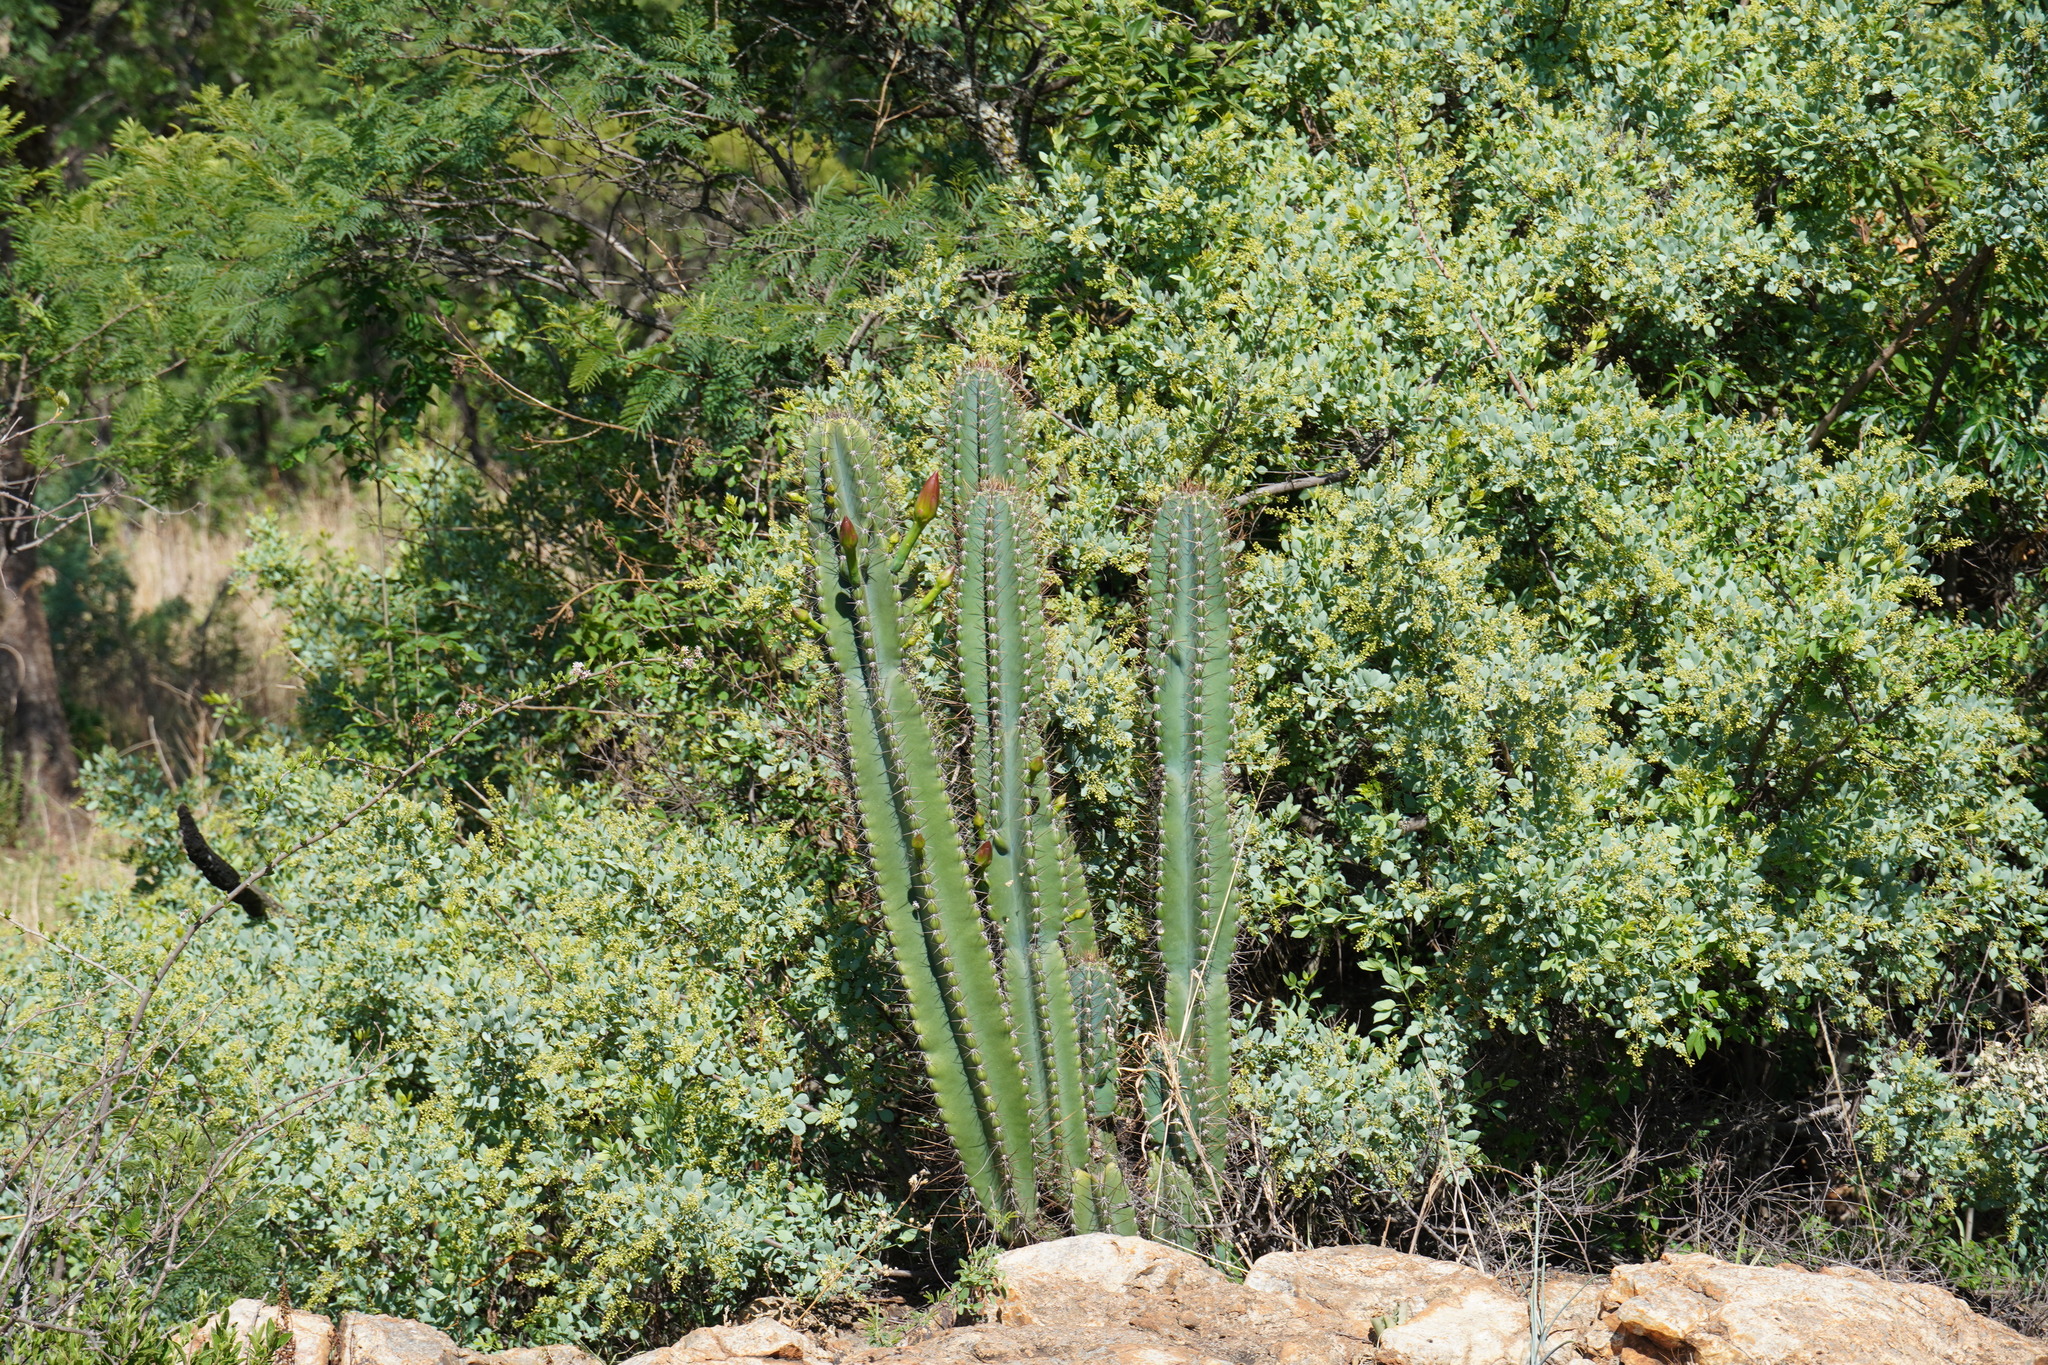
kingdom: Plantae
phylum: Tracheophyta
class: Magnoliopsida
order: Caryophyllales
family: Cactaceae
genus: Cereus
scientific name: Cereus jamacaru
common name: Queen-of-the-night
